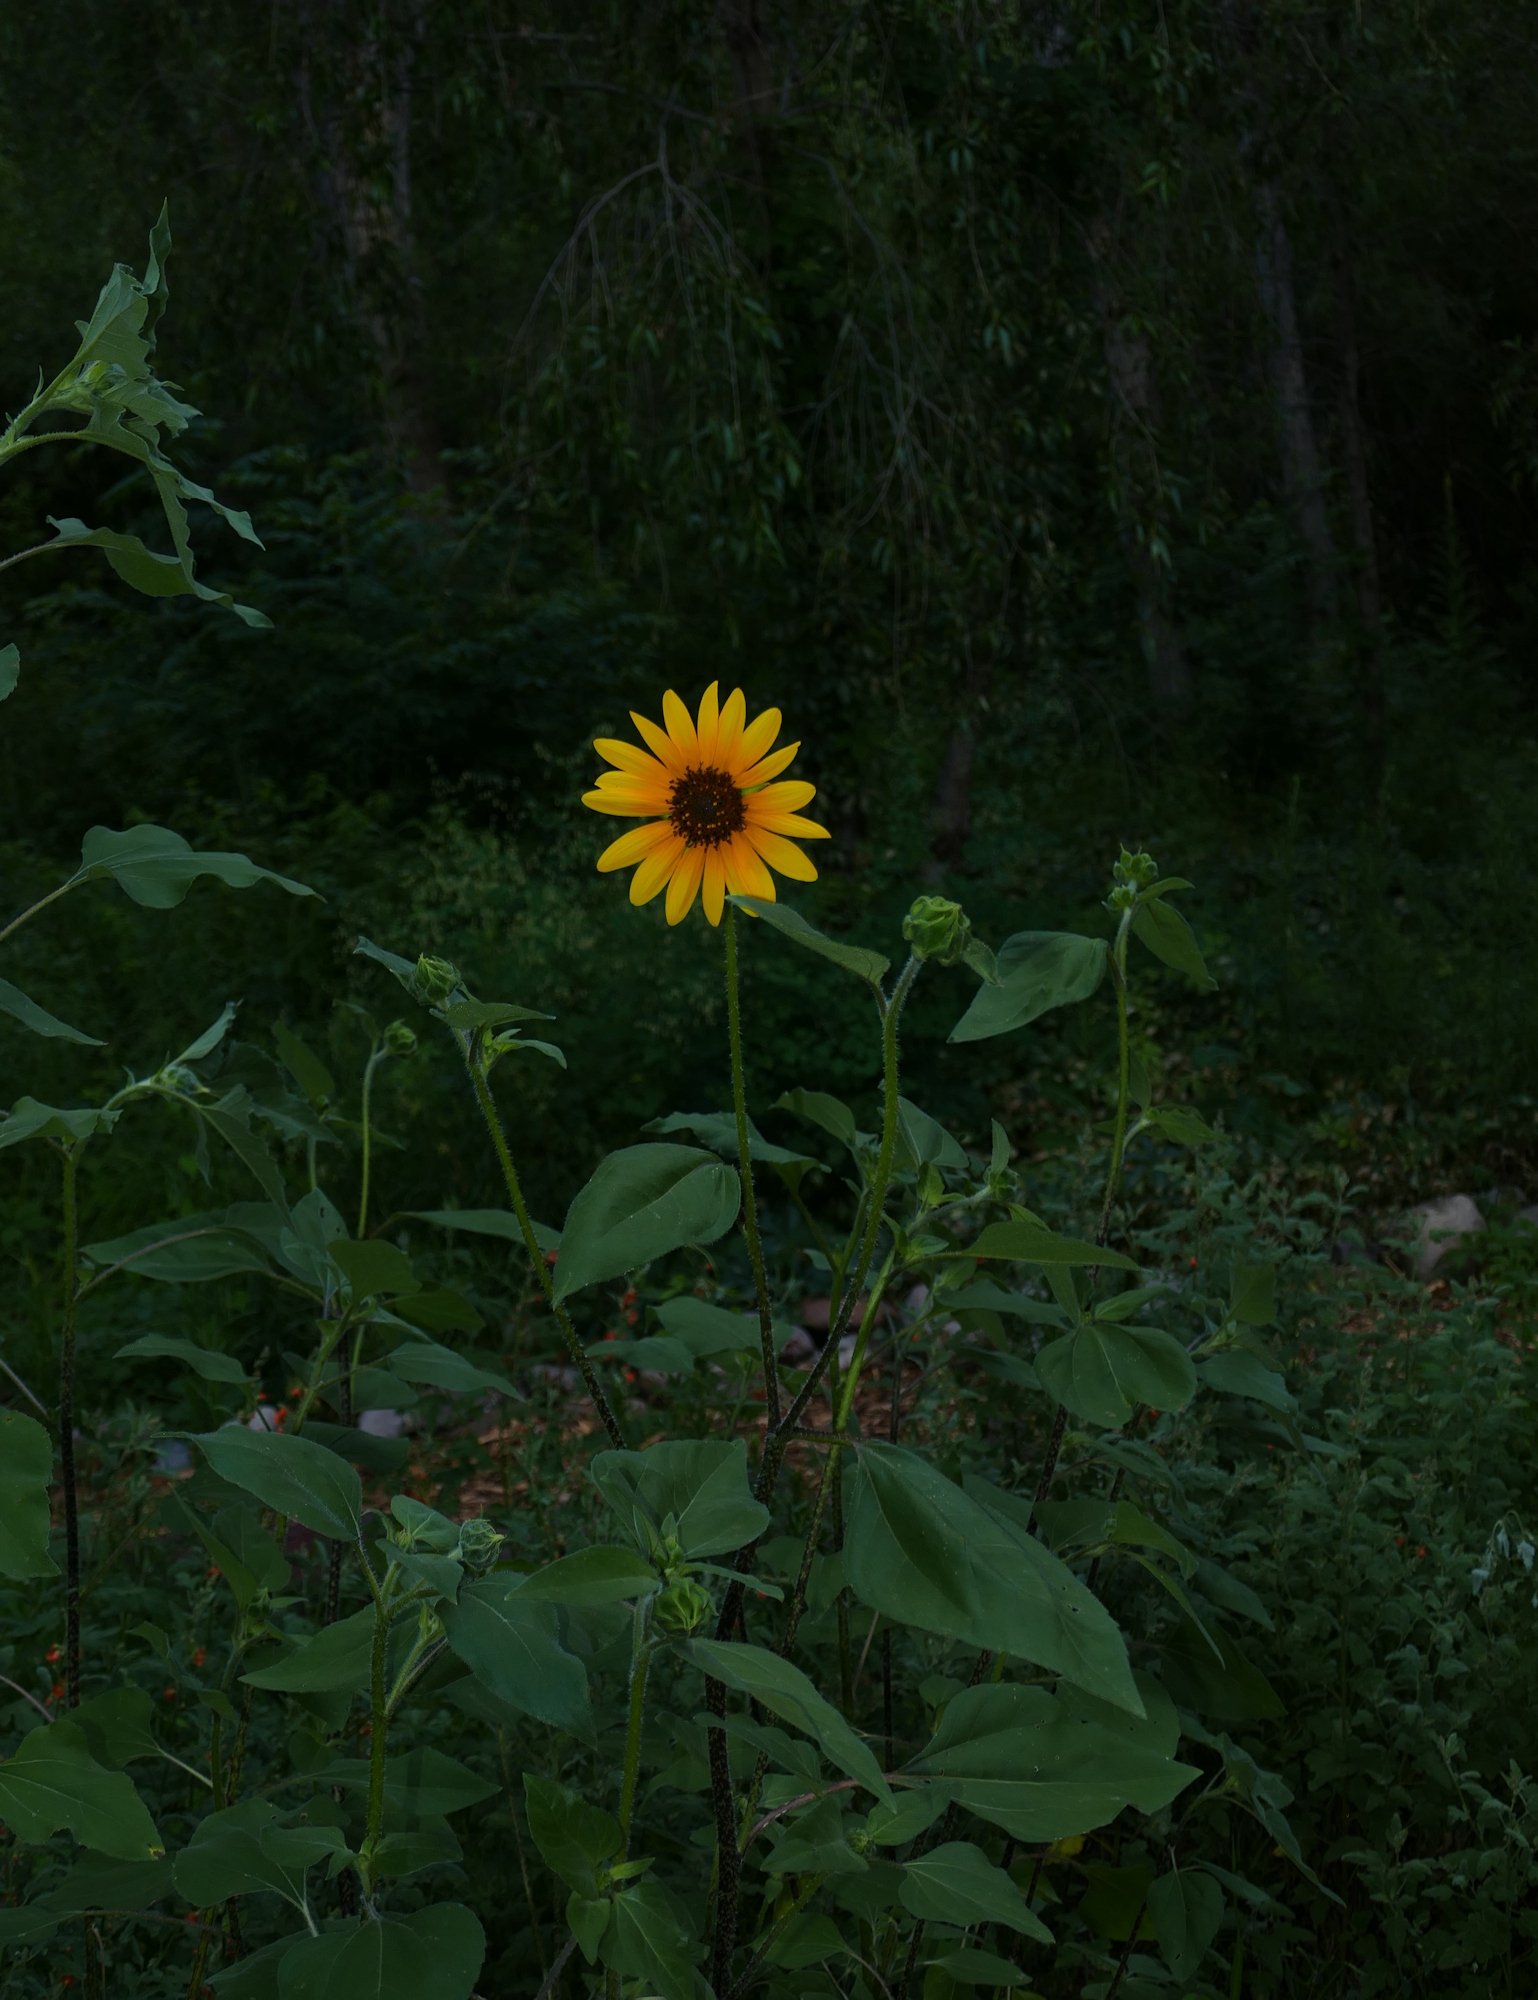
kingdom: Plantae
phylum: Tracheophyta
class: Magnoliopsida
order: Asterales
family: Asteraceae
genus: Helianthus
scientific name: Helianthus annuus
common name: Sunflower
